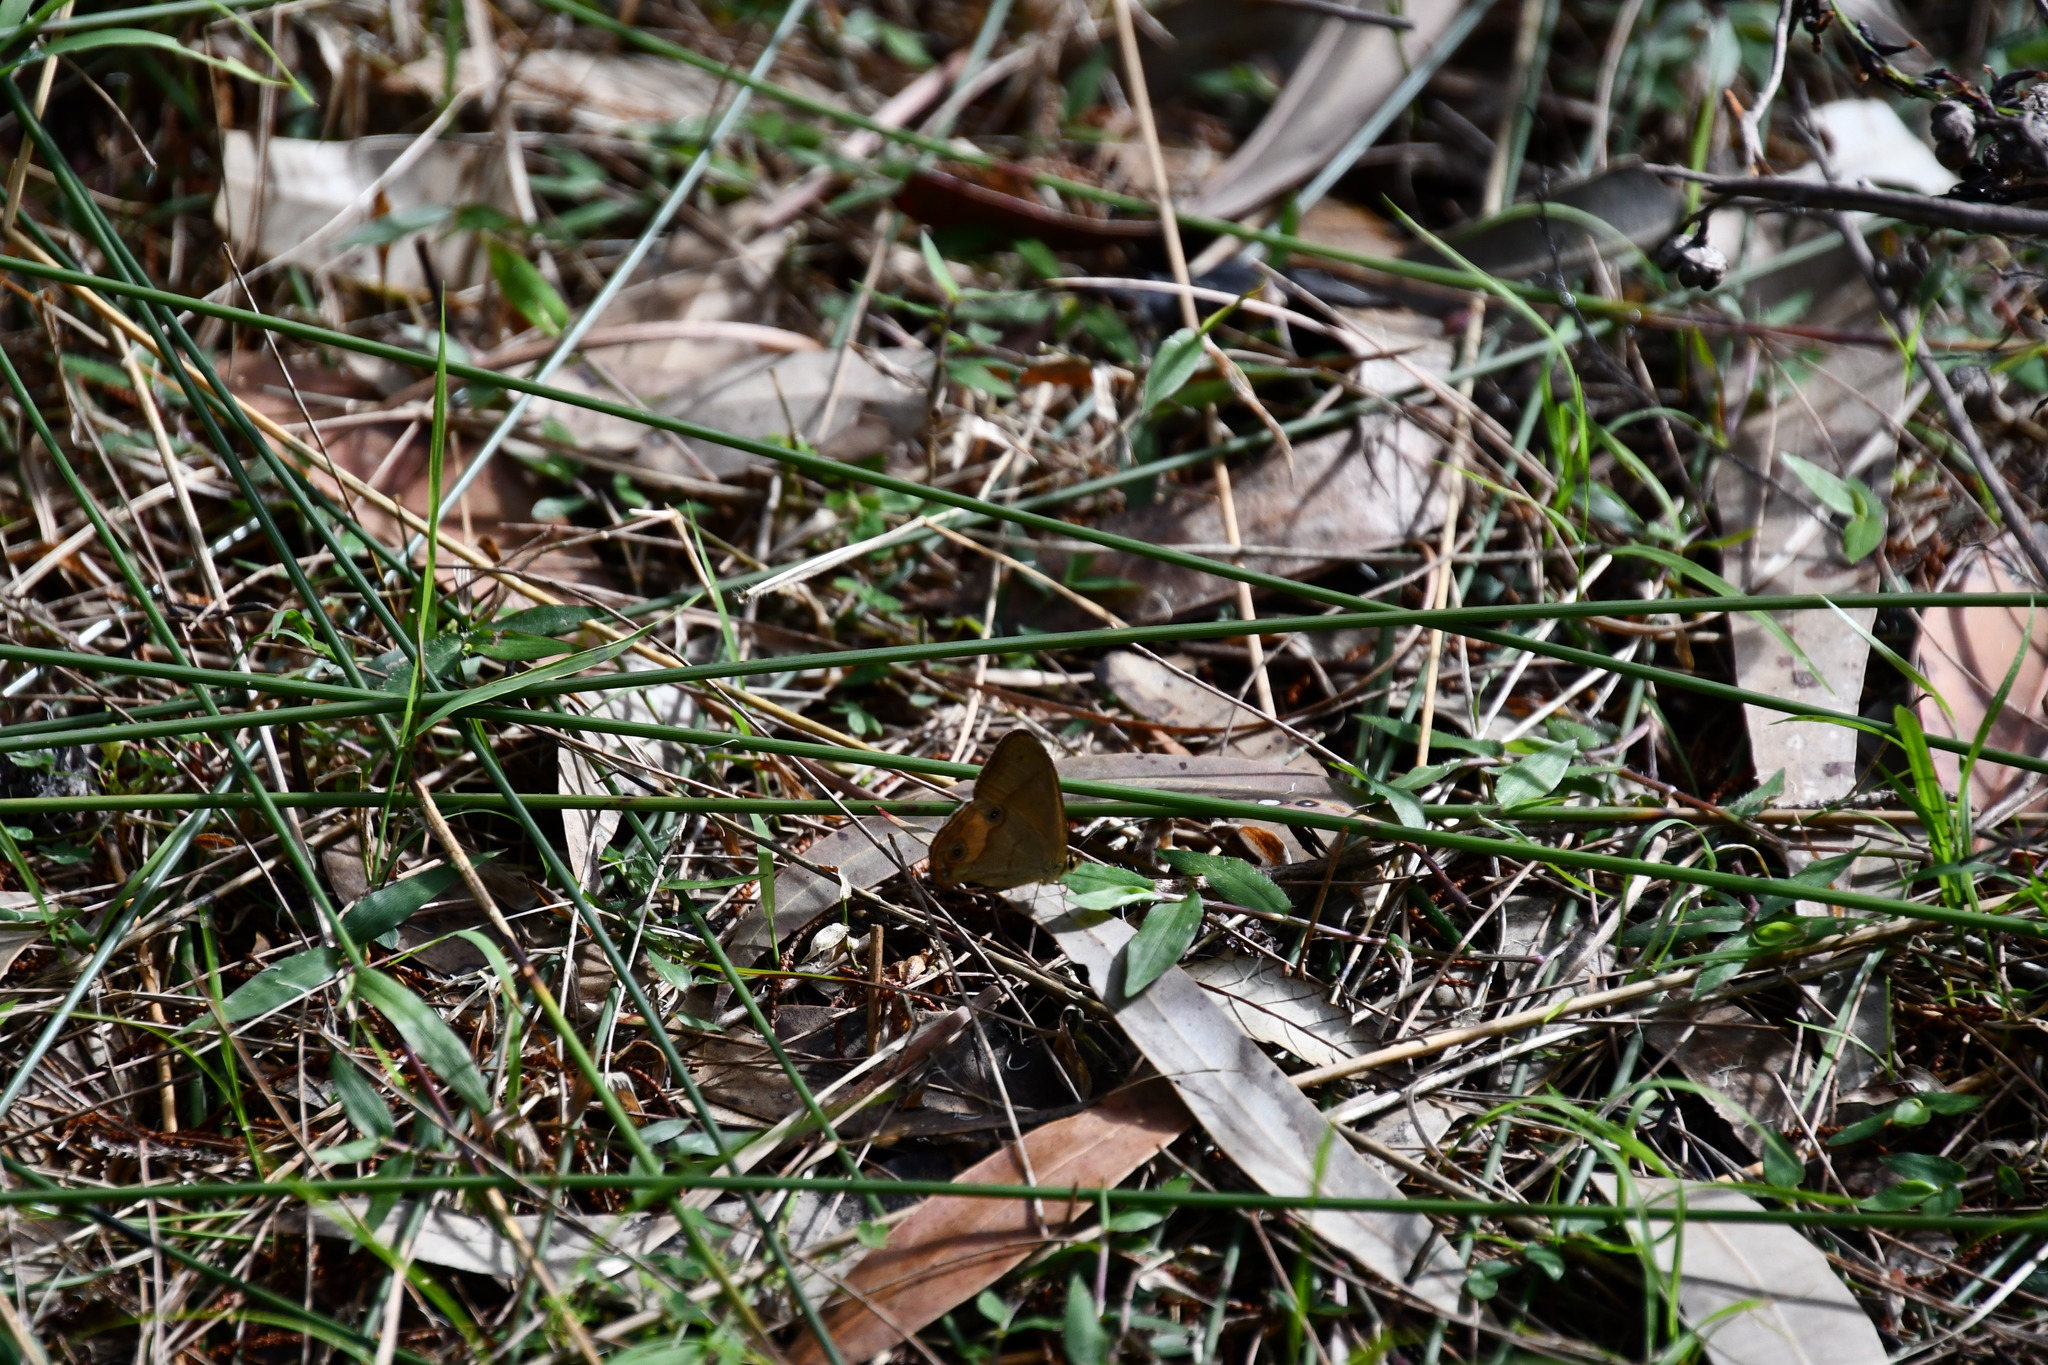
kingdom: Animalia
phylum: Arthropoda
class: Insecta
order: Lepidoptera
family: Nymphalidae
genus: Hypocysta
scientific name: Hypocysta metirius
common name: Brown ringlet
